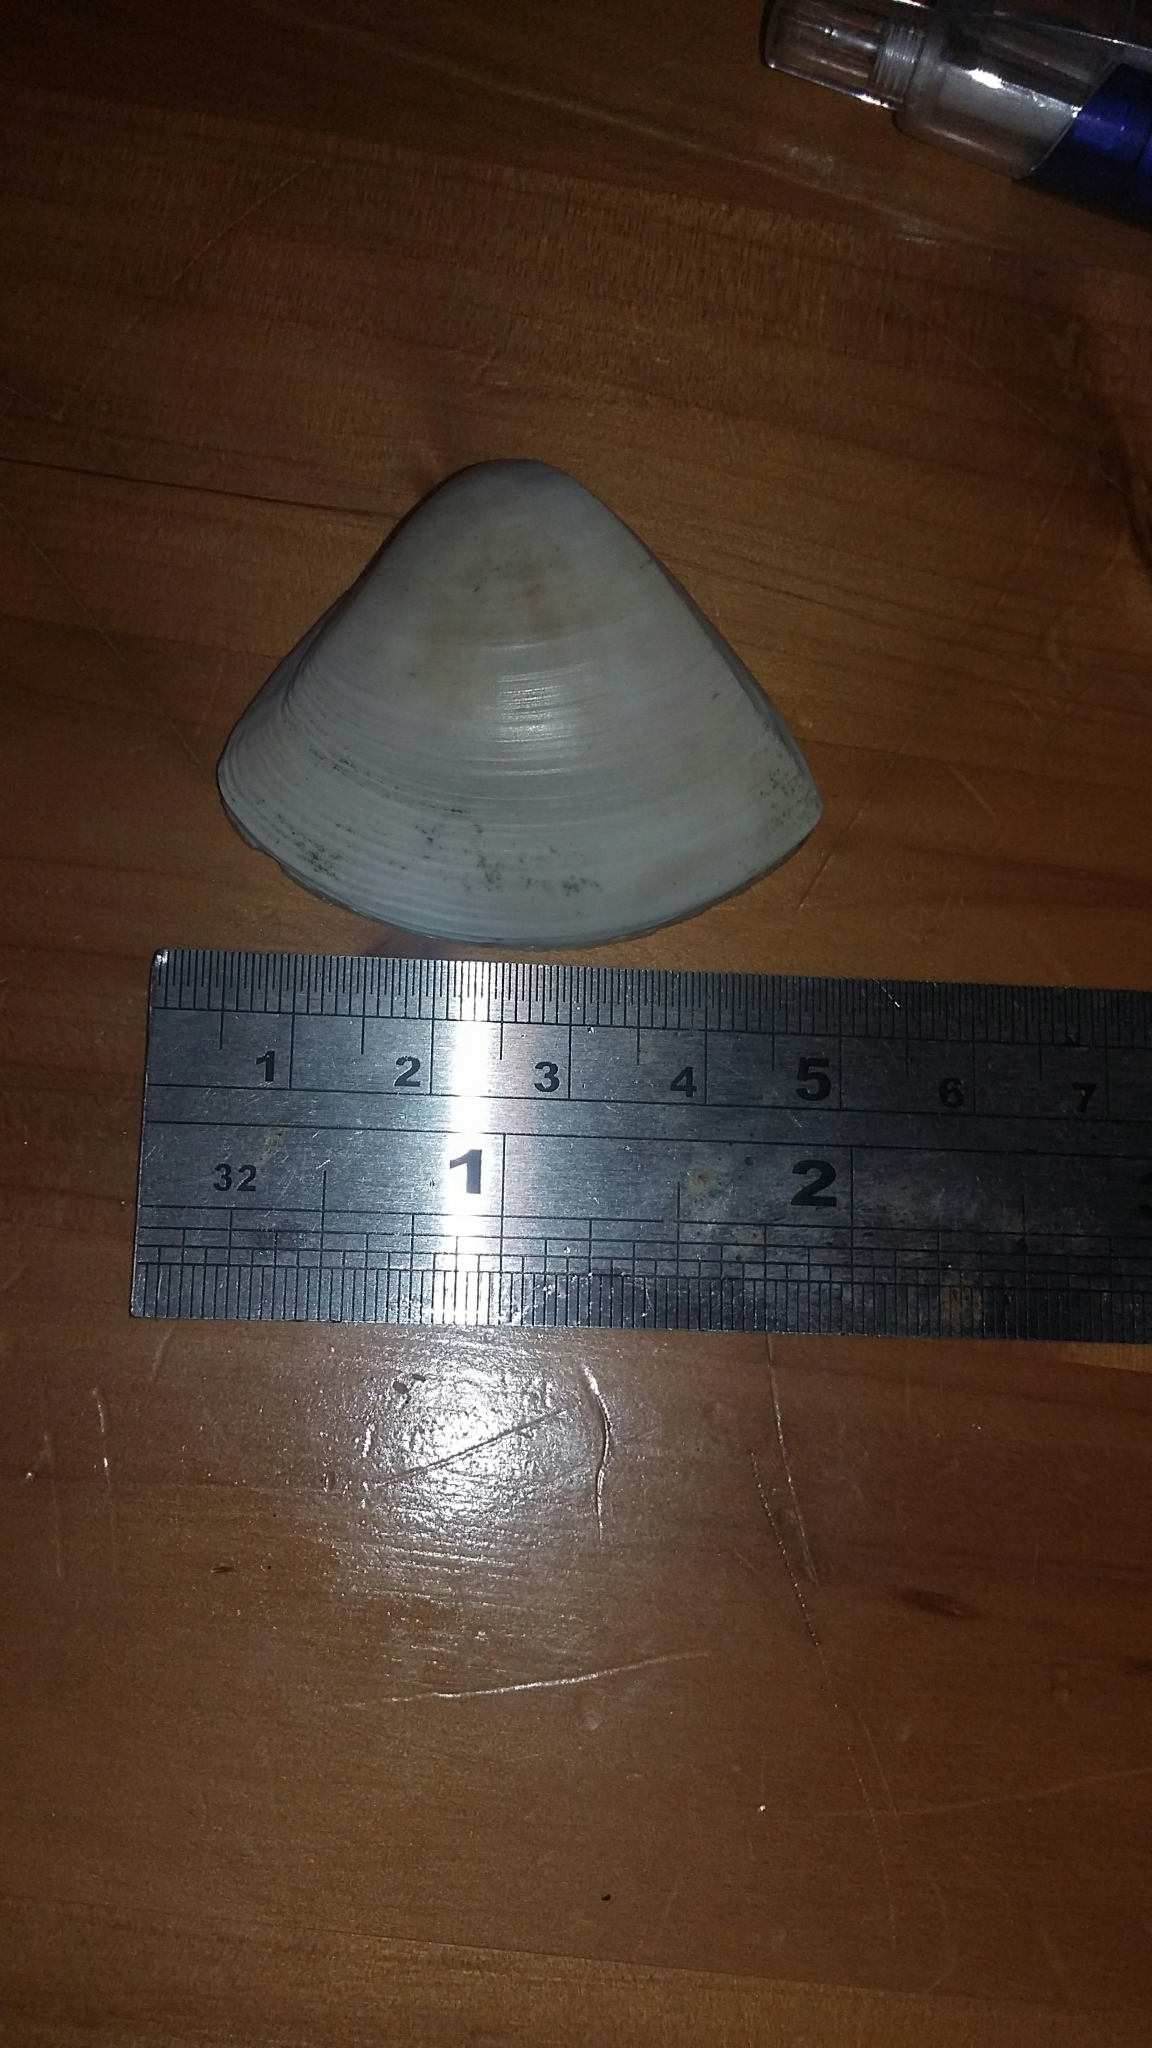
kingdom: Animalia
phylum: Mollusca
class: Bivalvia
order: Venerida
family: Mactridae
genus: Crassula
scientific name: Crassula aequilatera
